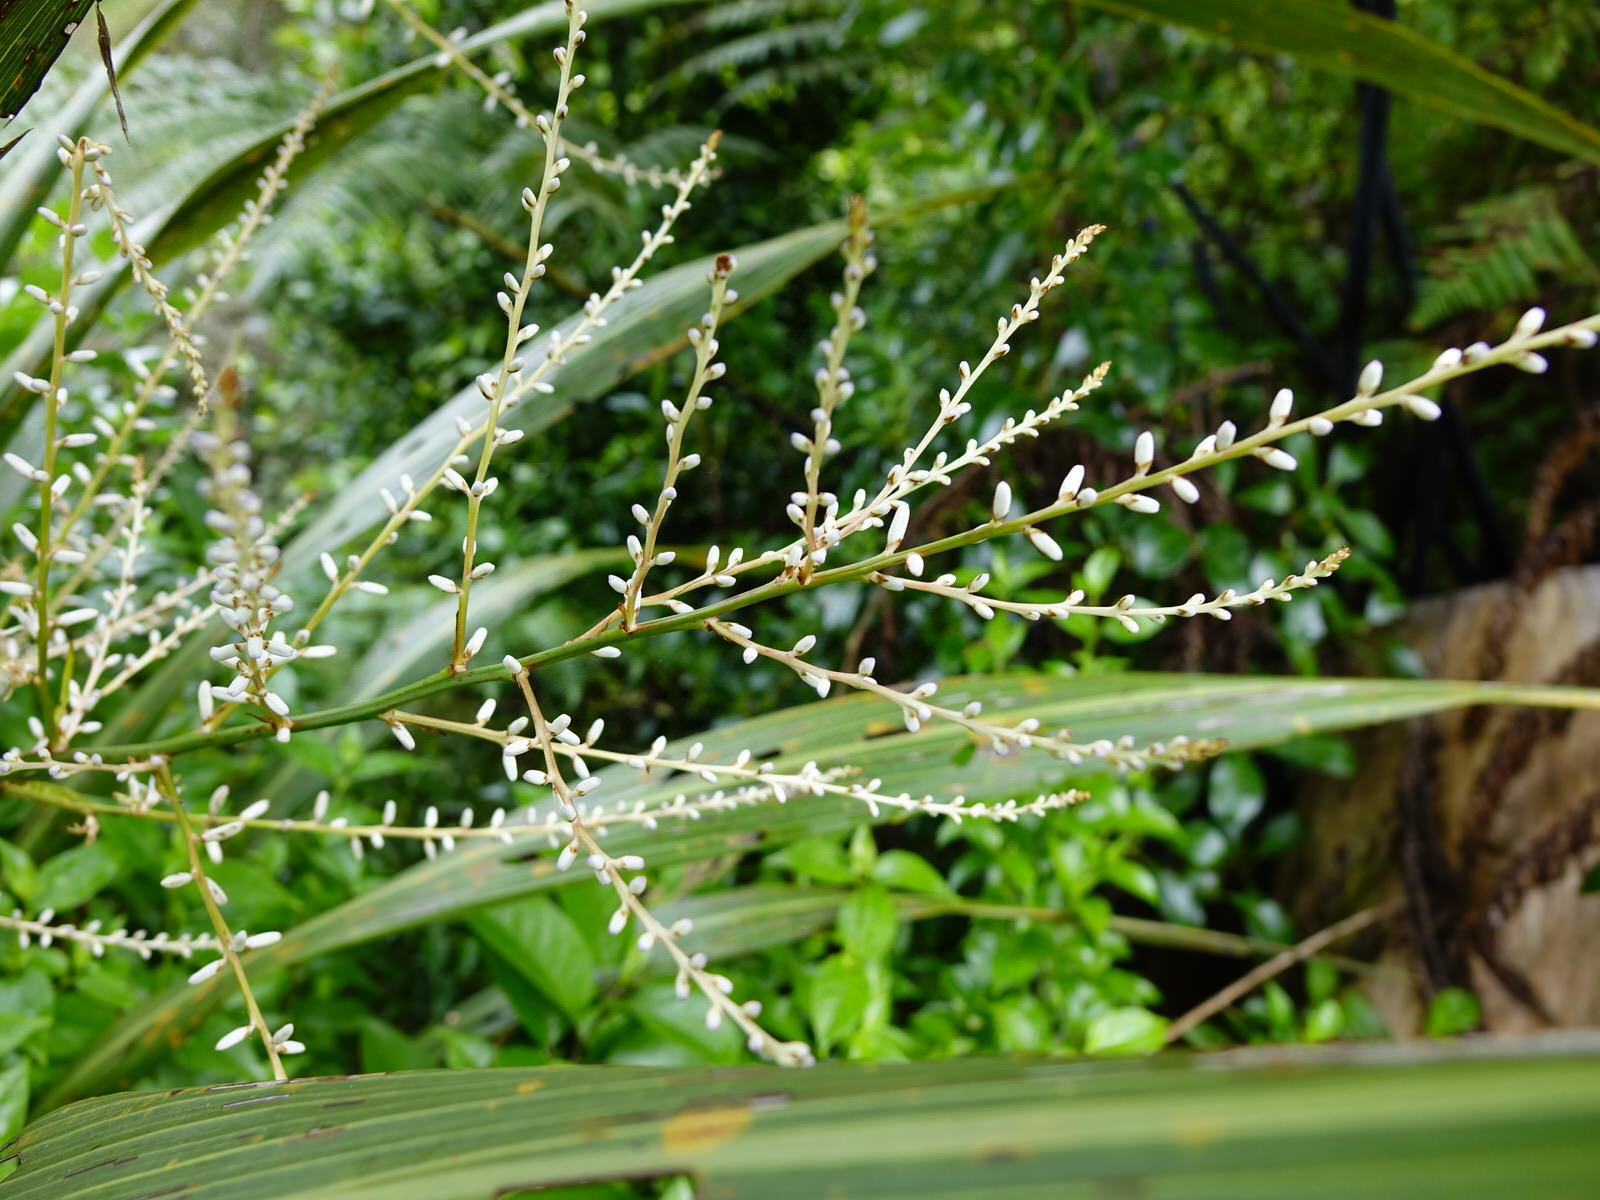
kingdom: Plantae
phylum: Tracheophyta
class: Liliopsida
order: Asparagales
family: Asparagaceae
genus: Cordyline
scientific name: Cordyline banksii
